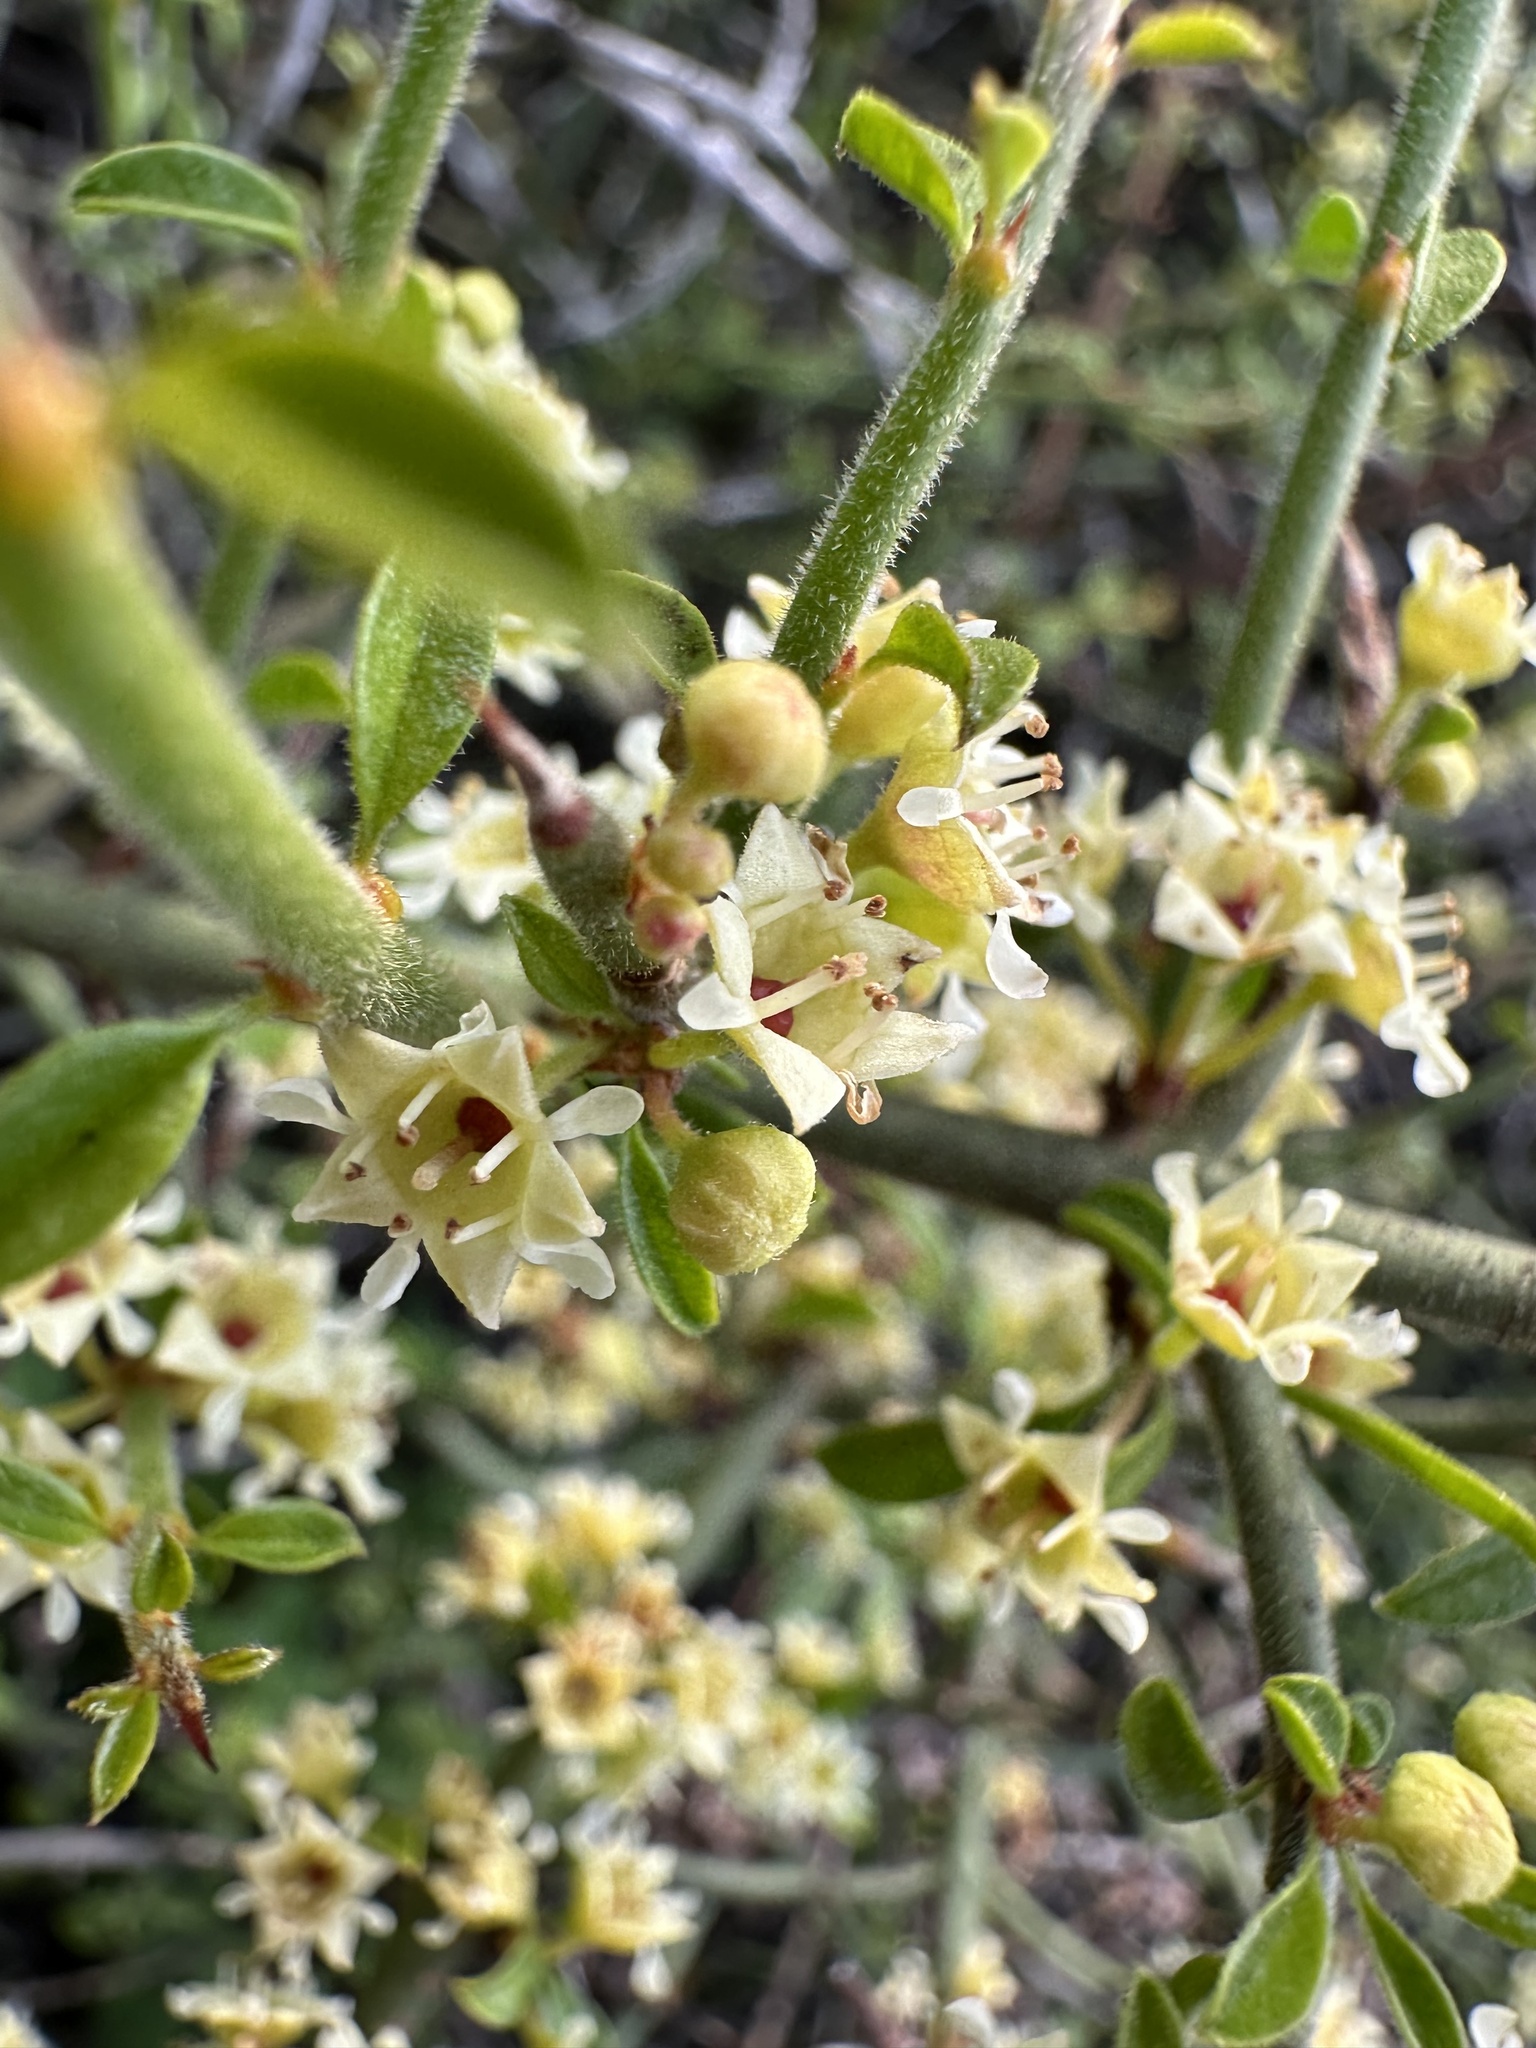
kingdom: Plantae
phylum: Tracheophyta
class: Magnoliopsida
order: Rosales
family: Rhamnaceae
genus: Adolphia
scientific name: Adolphia californica
